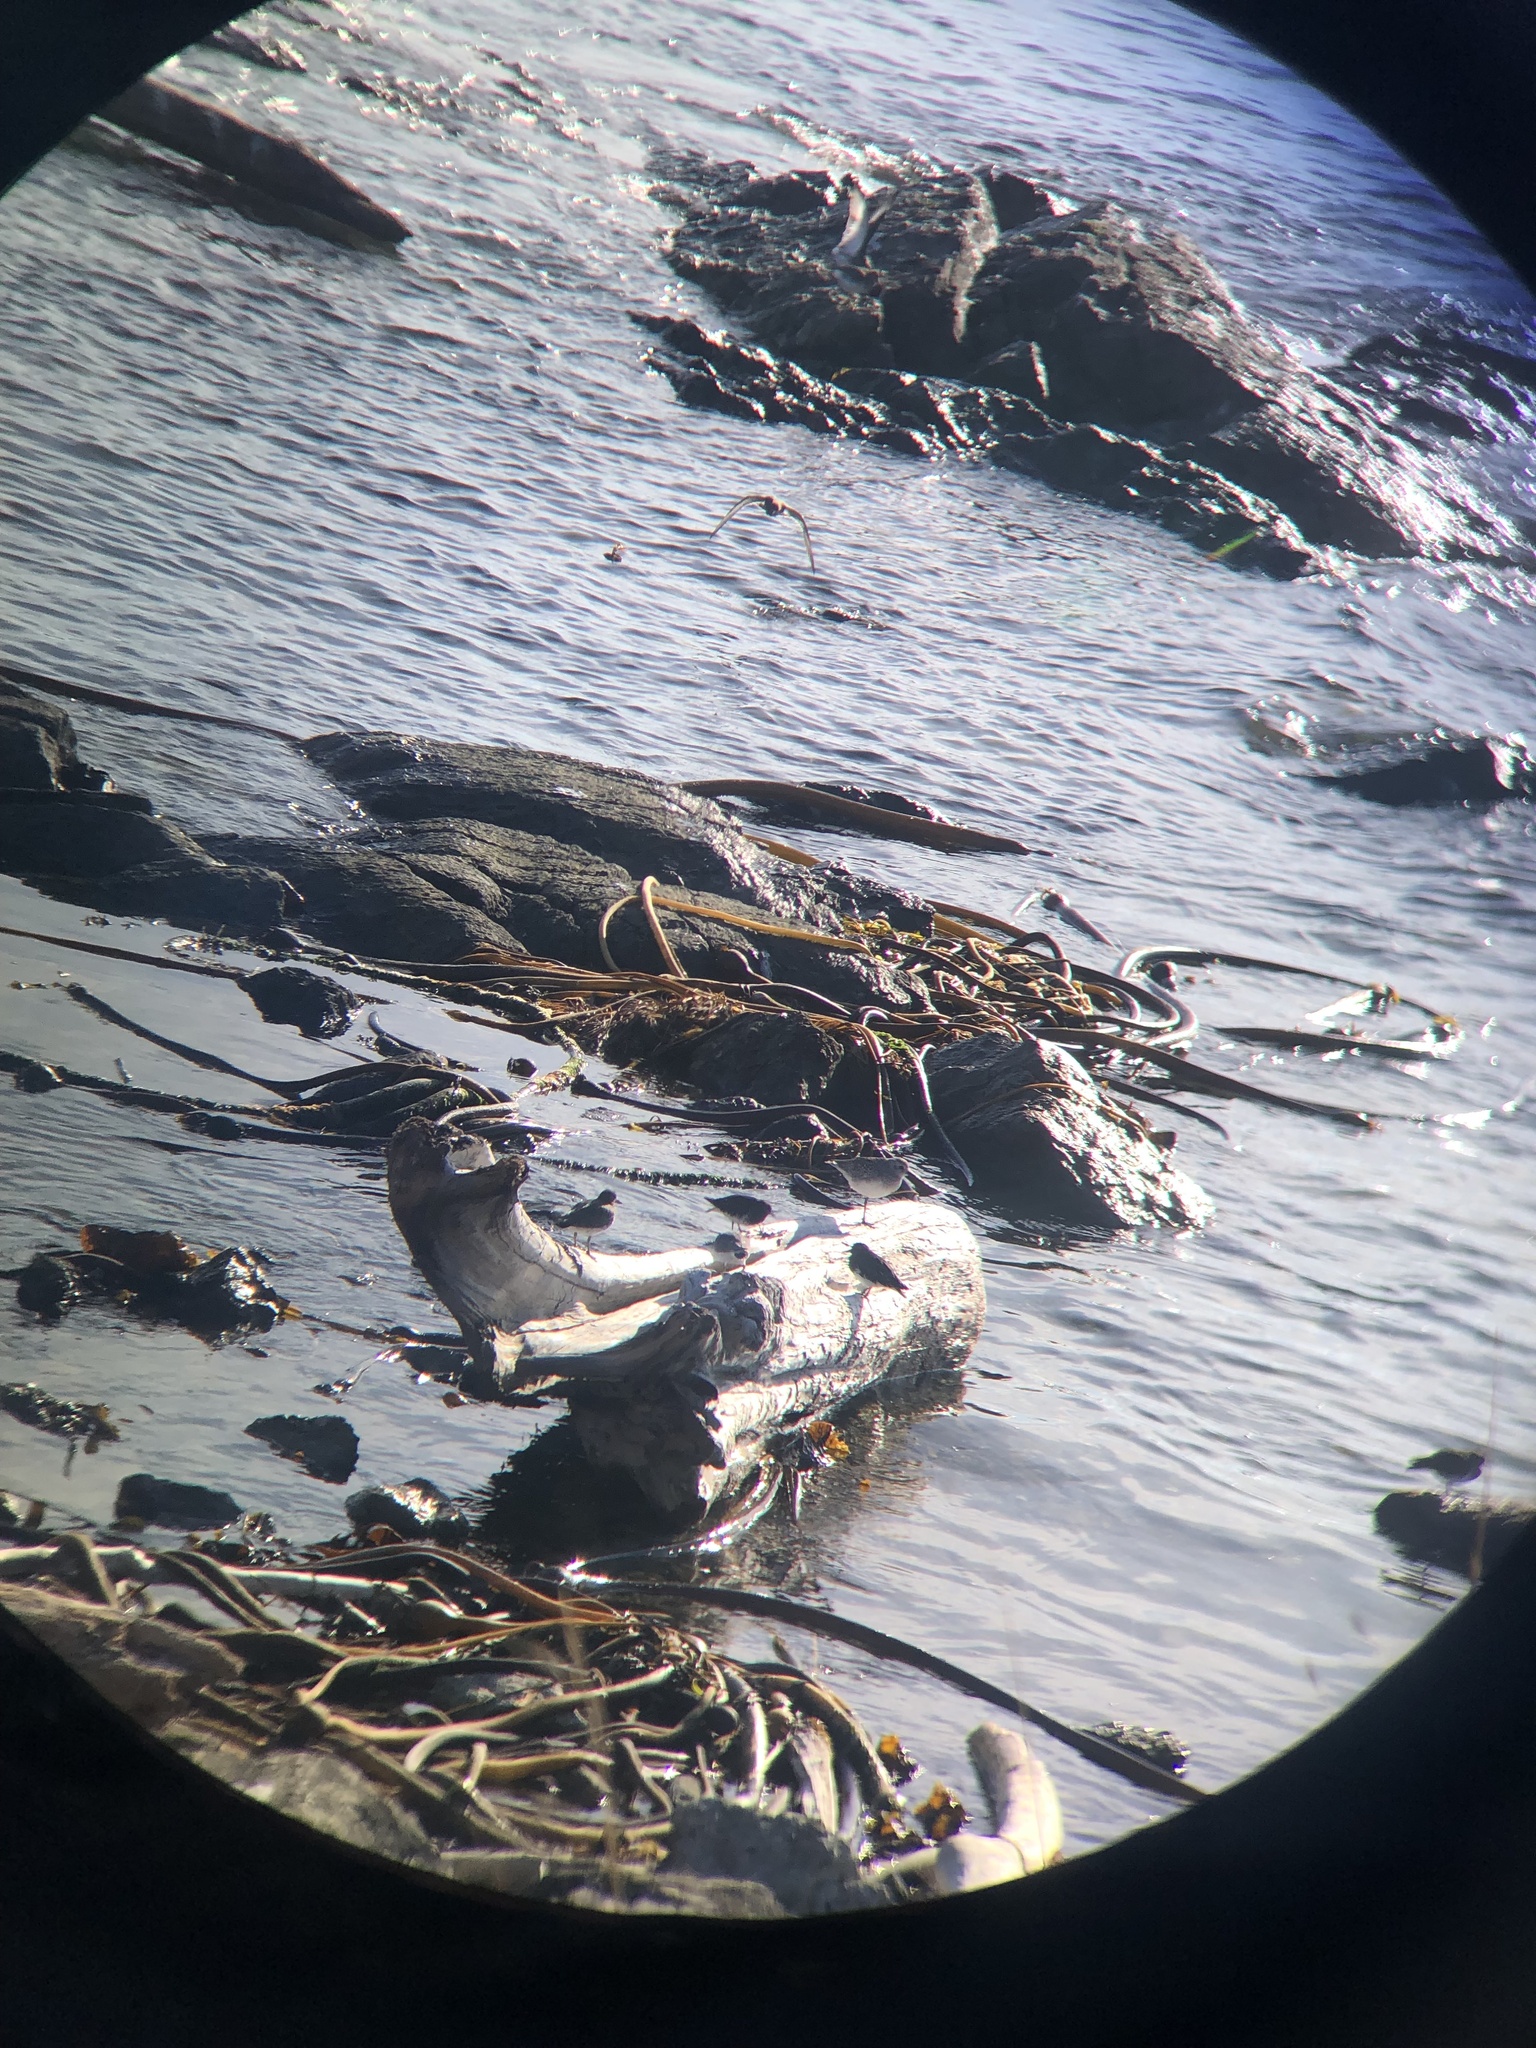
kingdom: Animalia
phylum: Chordata
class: Aves
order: Charadriiformes
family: Scolopacidae
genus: Arenaria
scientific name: Arenaria melanocephala
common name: Black turnstone
